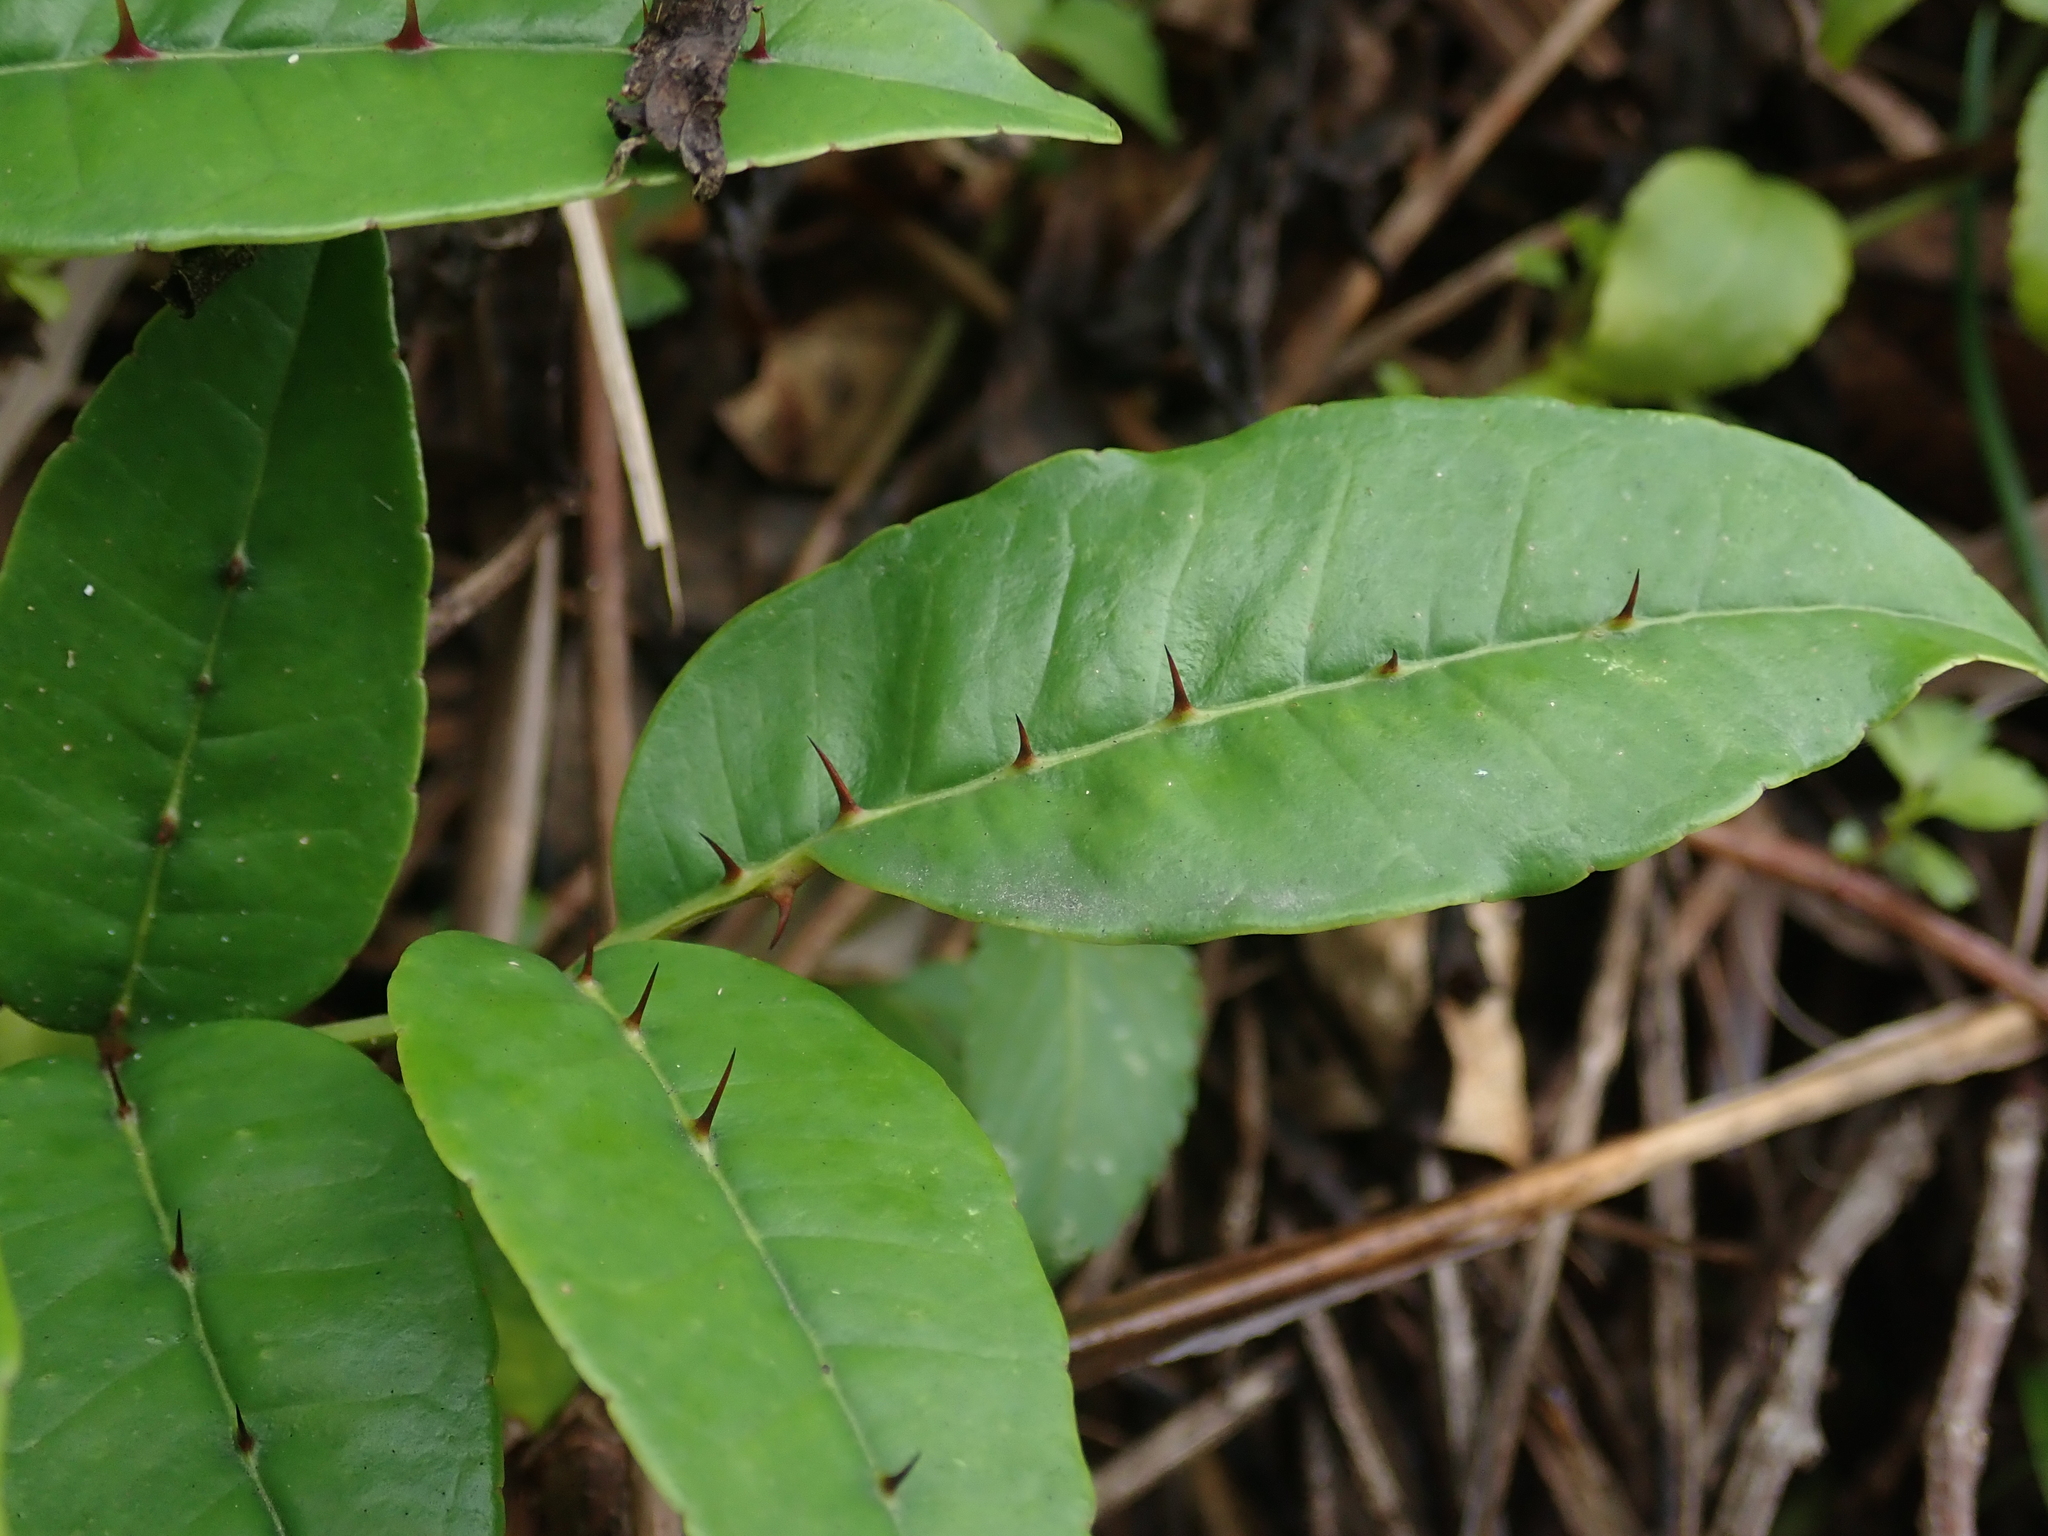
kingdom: Plantae
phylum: Tracheophyta
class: Magnoliopsida
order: Sapindales
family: Rutaceae
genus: Zanthoxylum
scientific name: Zanthoxylum nitidum
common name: Shiny-leaf prickly-ash
